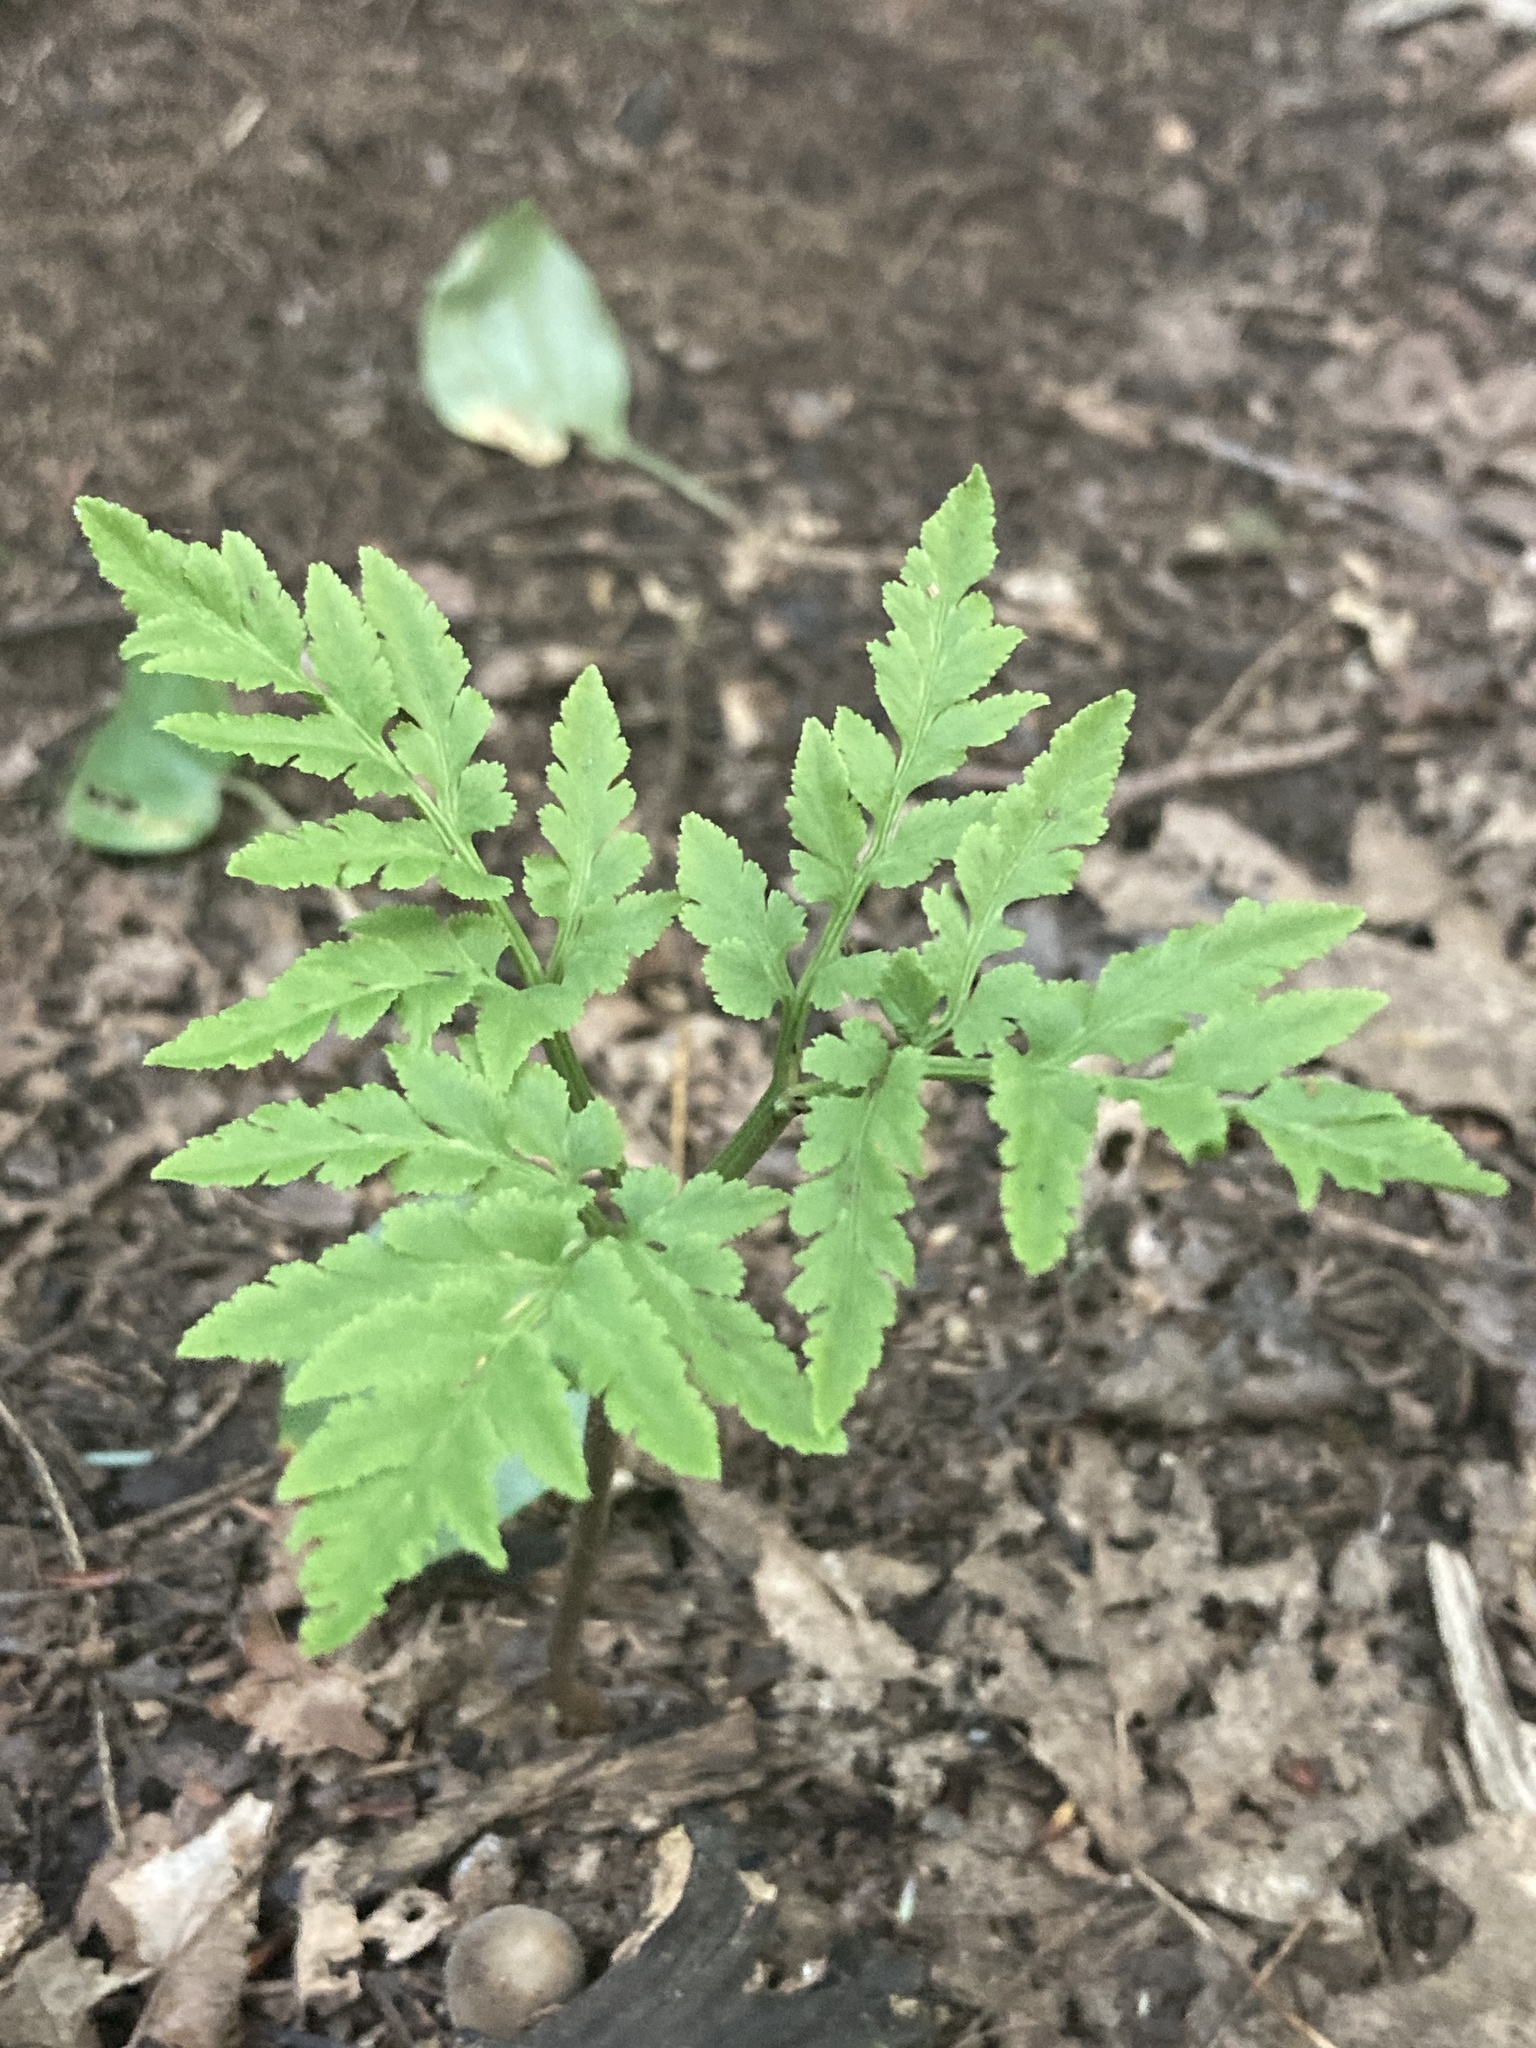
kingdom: Plantae
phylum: Tracheophyta
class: Polypodiopsida
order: Ophioglossales
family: Ophioglossaceae
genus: Sceptridium
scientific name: Sceptridium dissectum
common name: Cut-leaved grapefern
